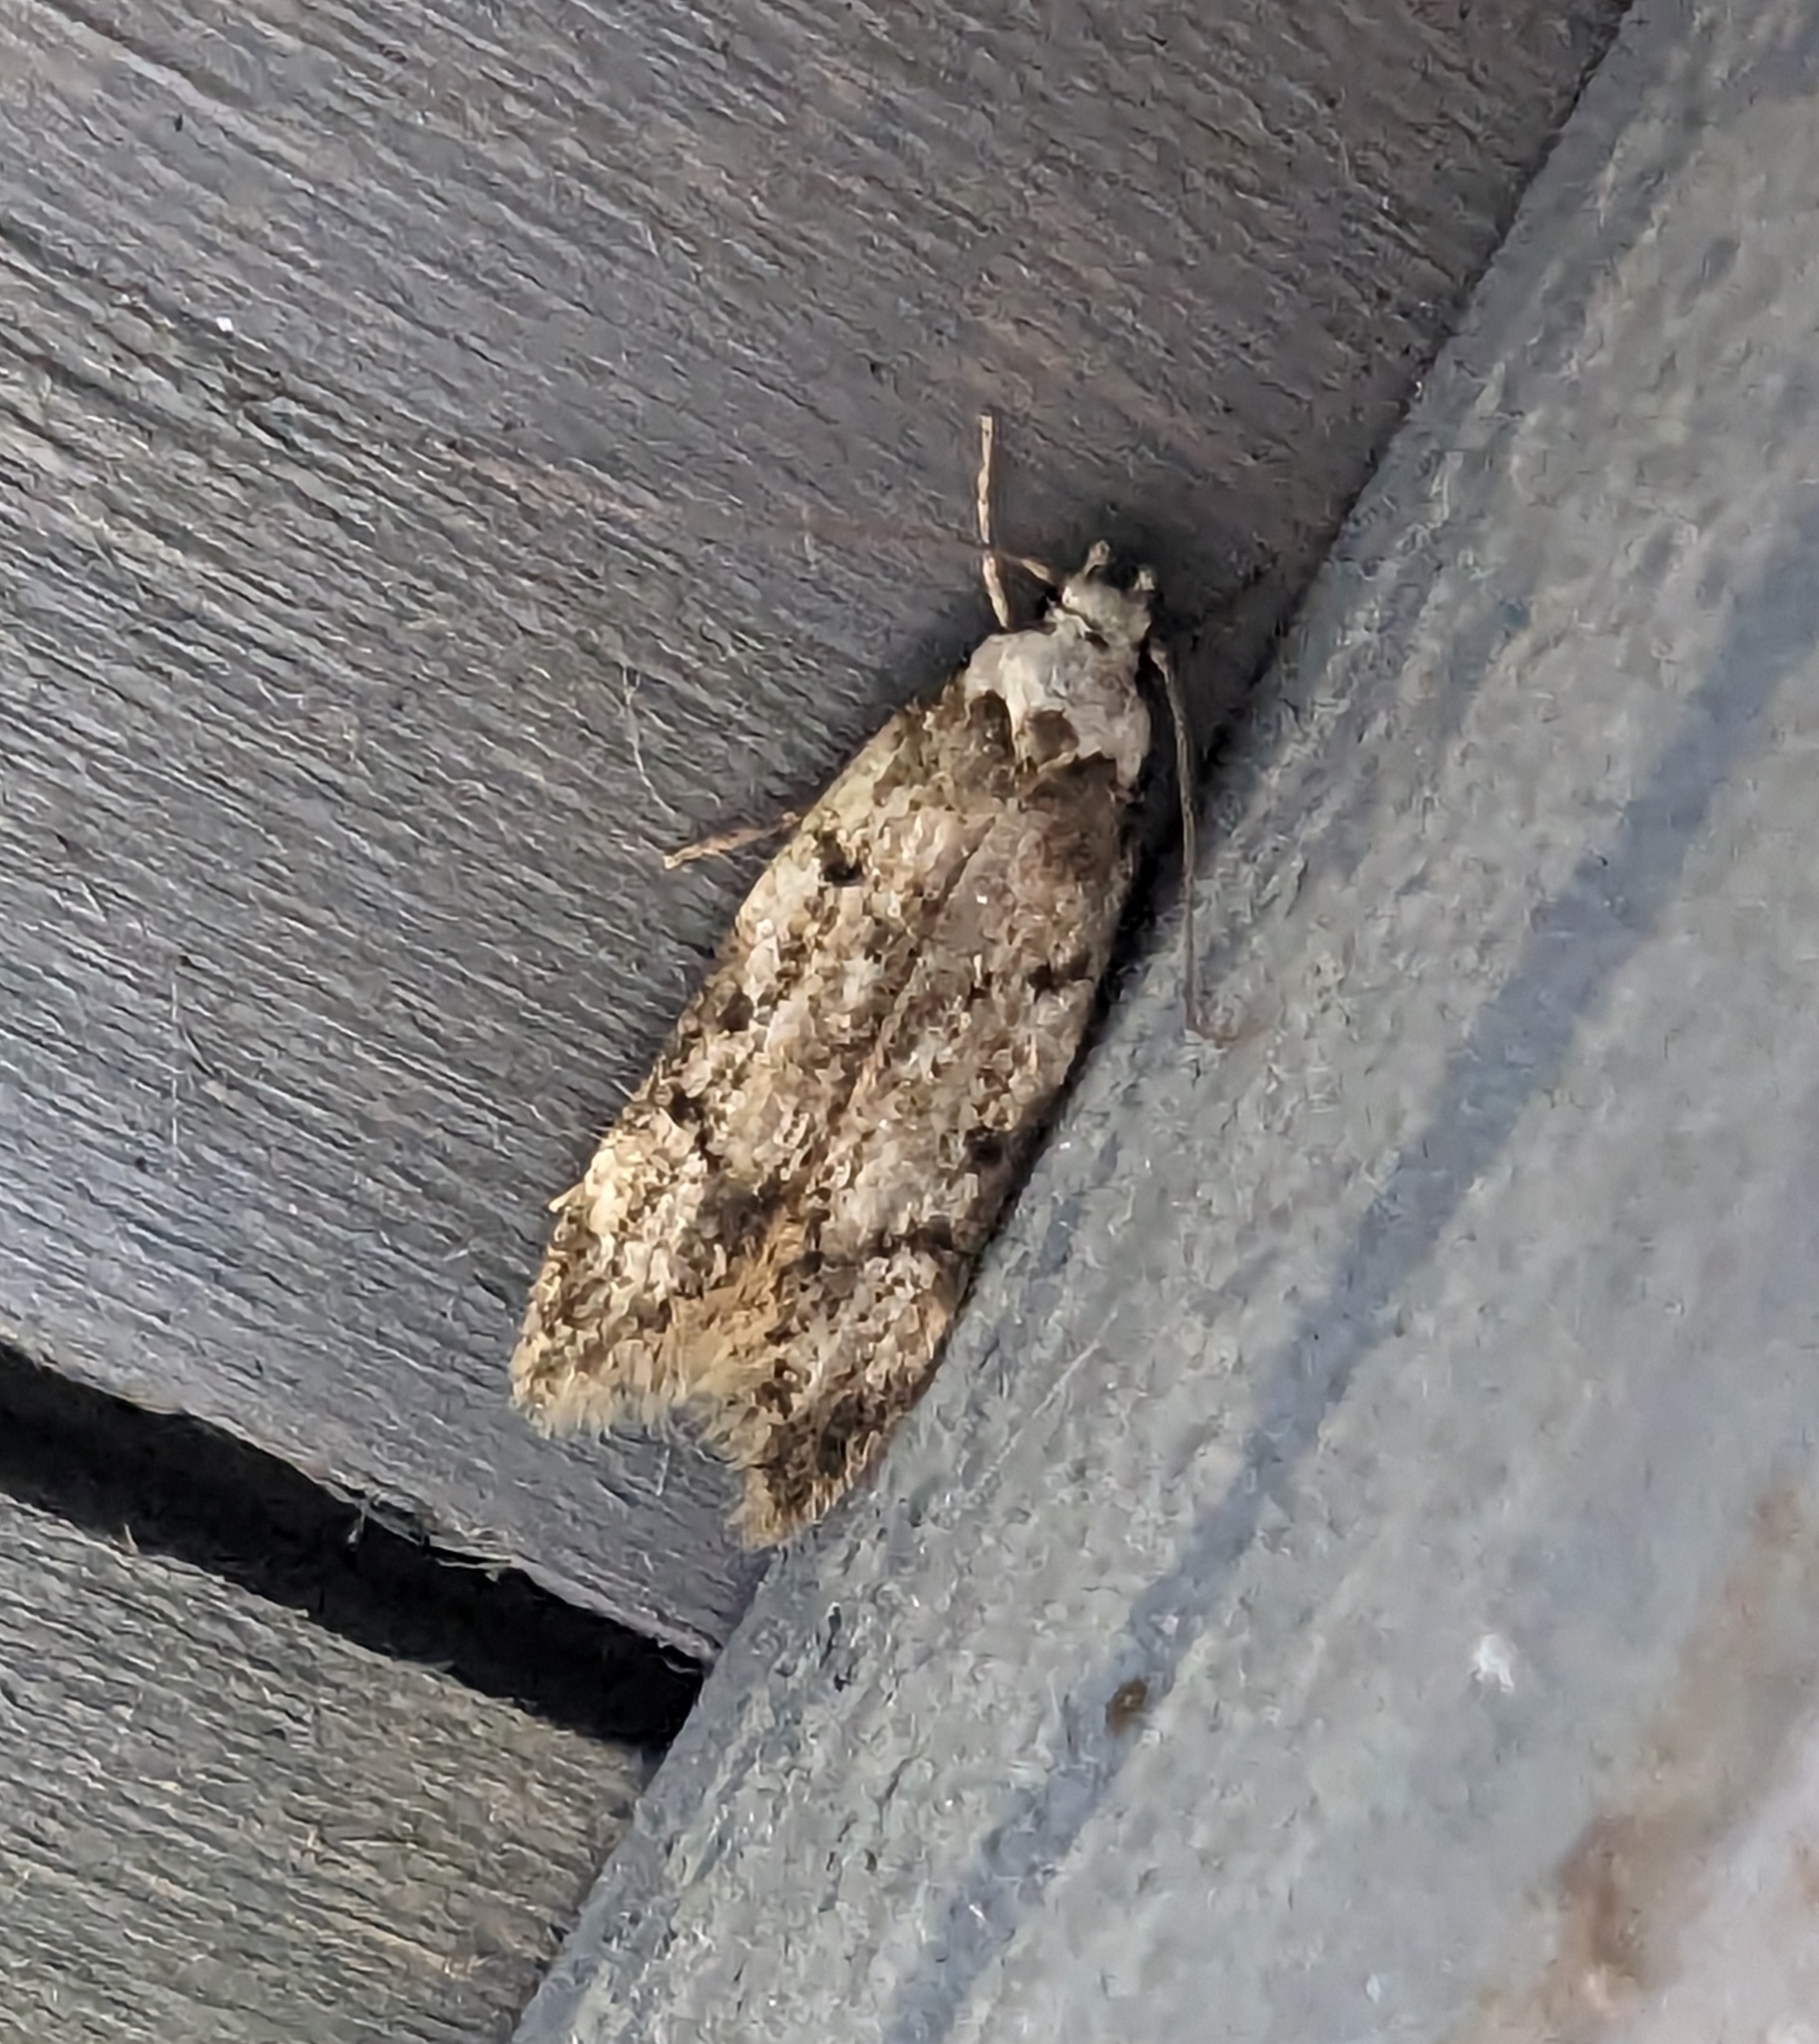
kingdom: Animalia
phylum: Arthropoda
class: Insecta
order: Lepidoptera
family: Oecophoridae
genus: Endrosis
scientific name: Endrosis sarcitrella
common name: White-shouldered house moth
